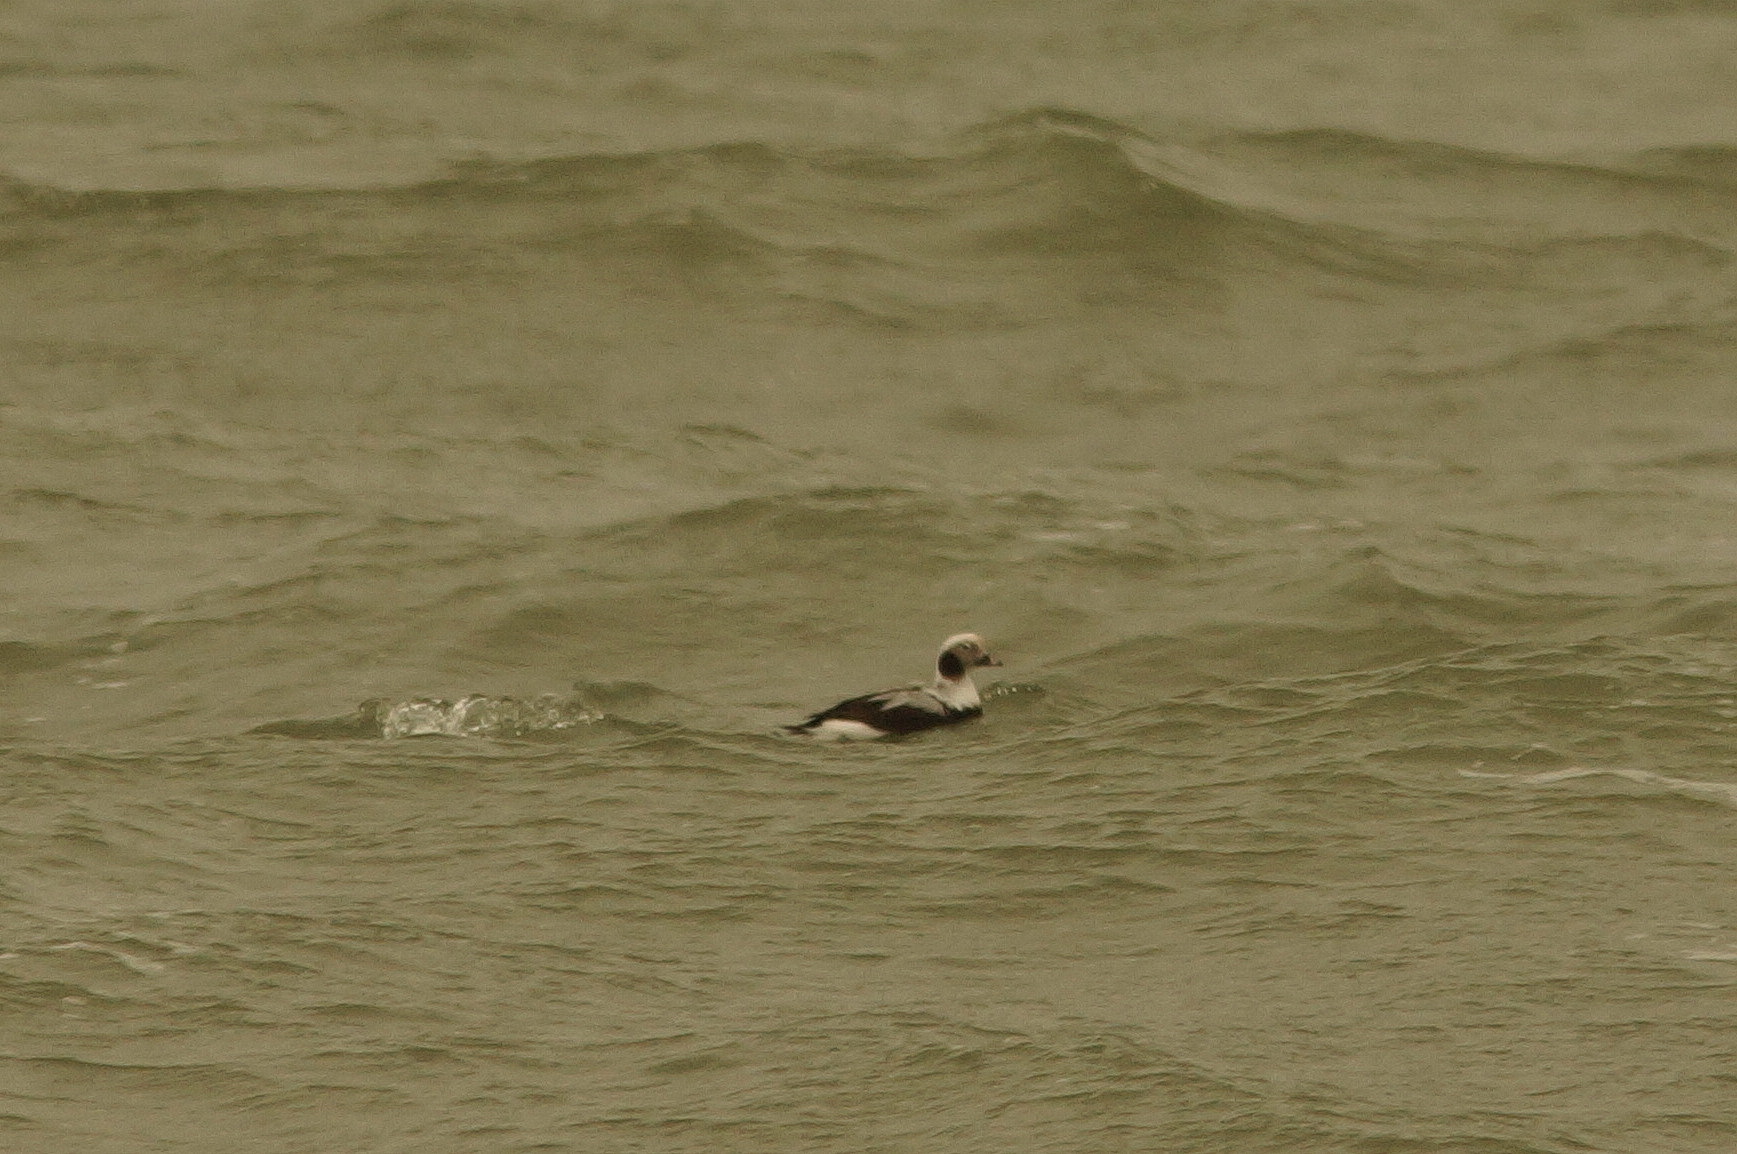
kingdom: Animalia
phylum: Chordata
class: Aves
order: Anseriformes
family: Anatidae
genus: Clangula
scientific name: Clangula hyemalis
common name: Long-tailed duck
